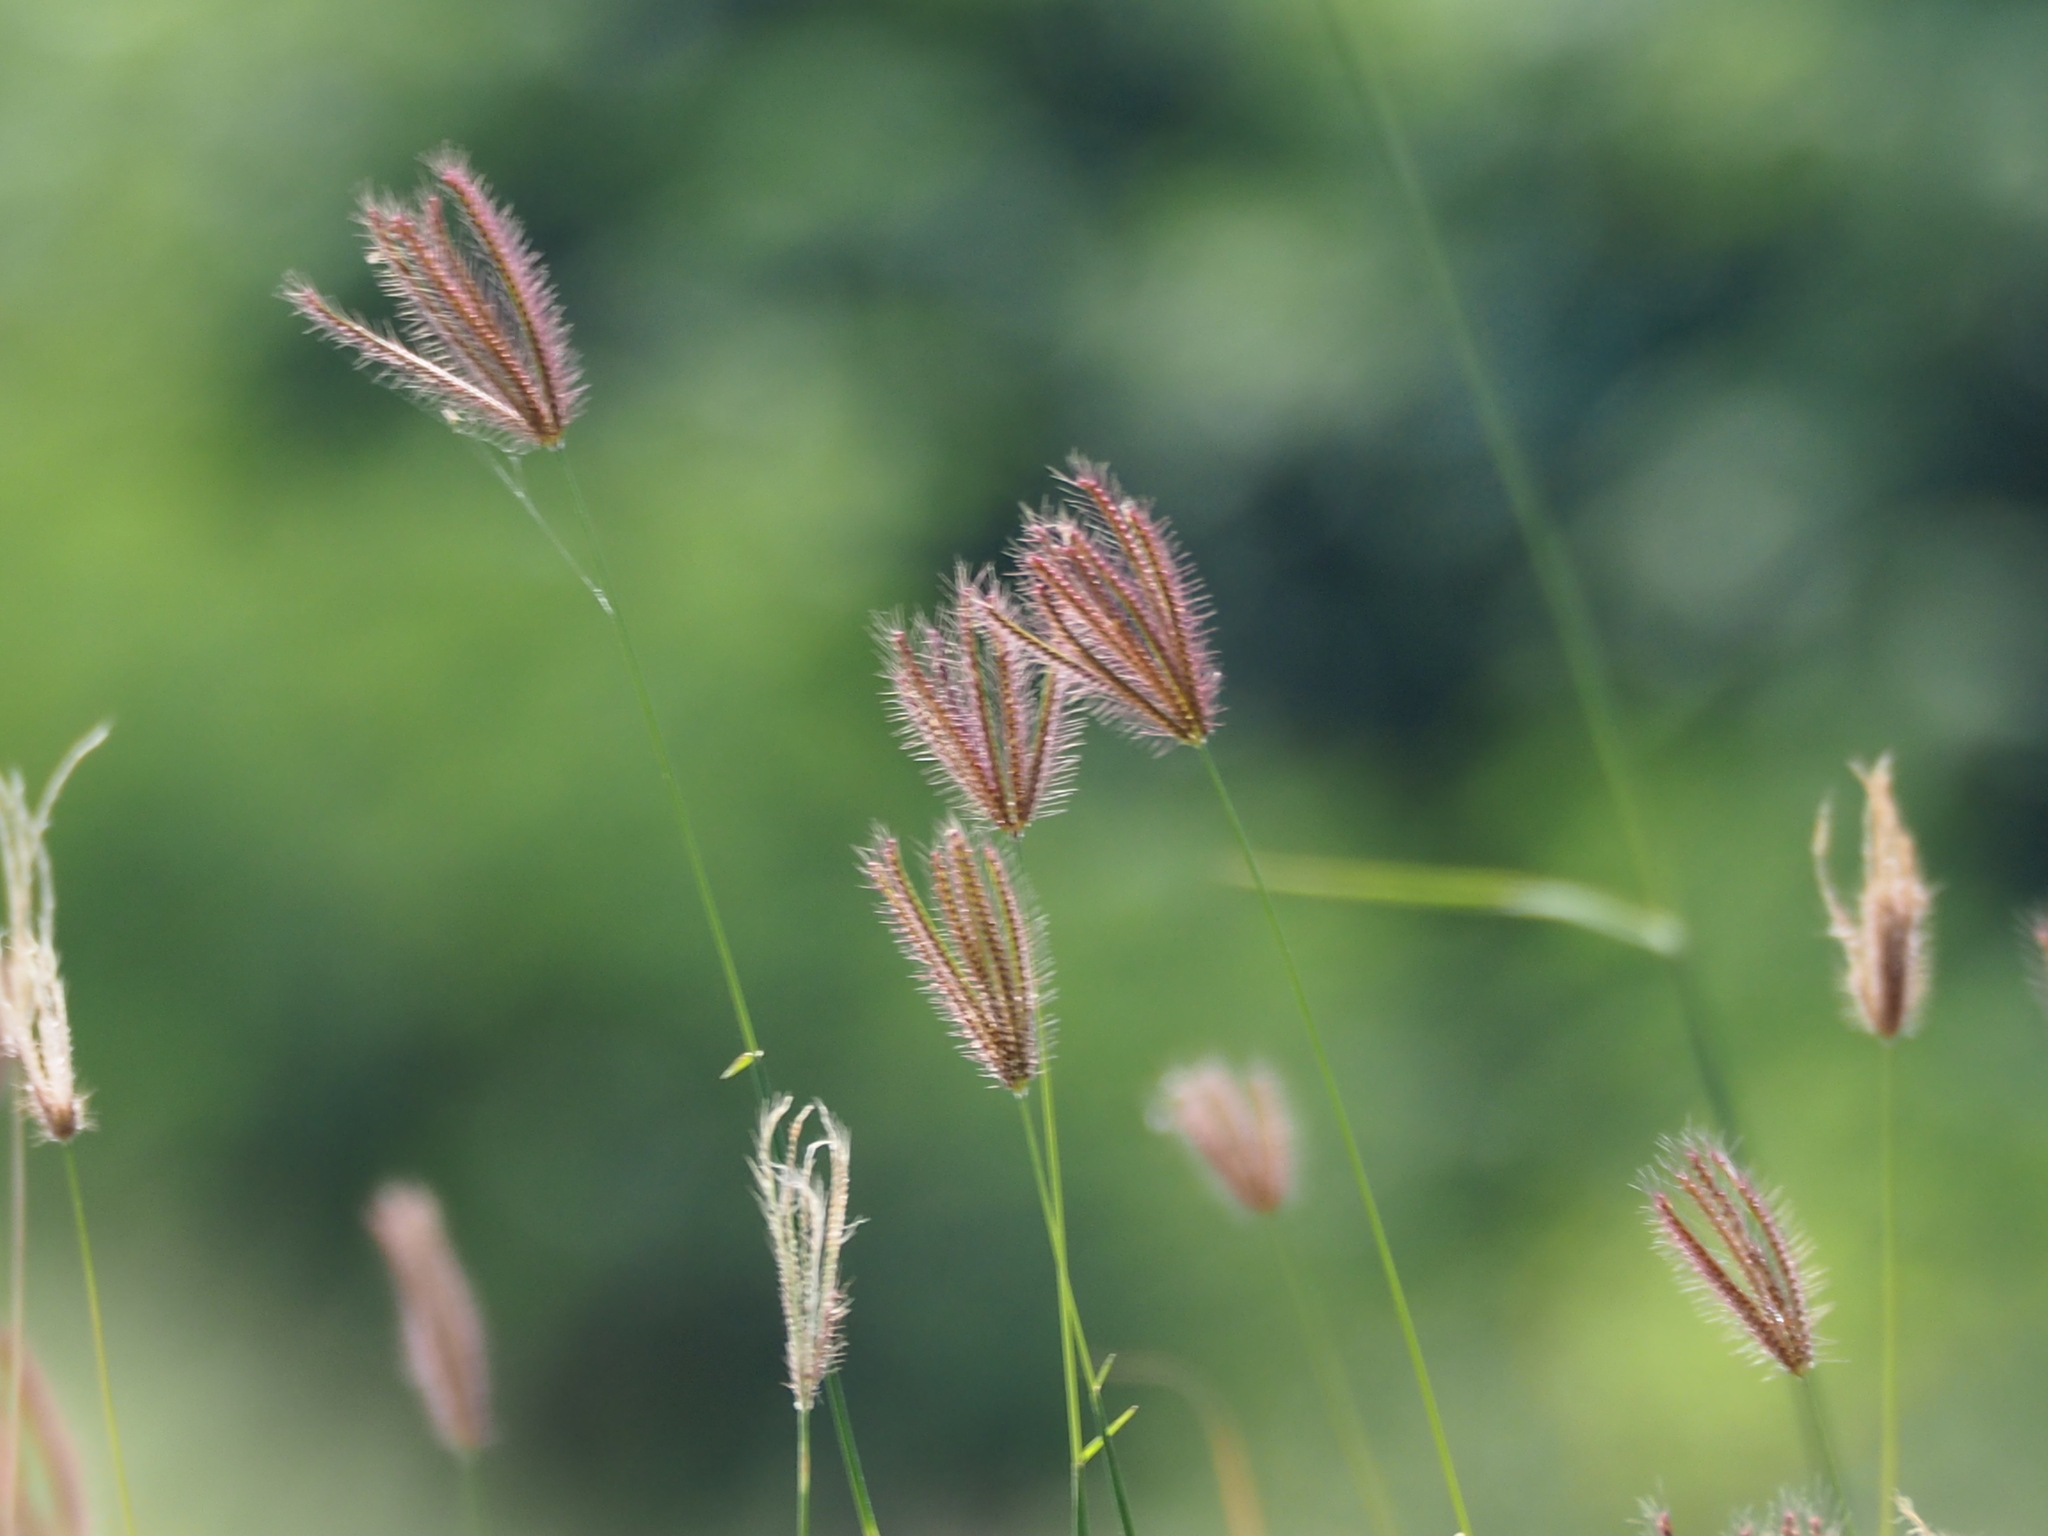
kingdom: Plantae
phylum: Tracheophyta
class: Liliopsida
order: Poales
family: Poaceae
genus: Chloris
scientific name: Chloris barbata
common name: Swollen fingergrass
